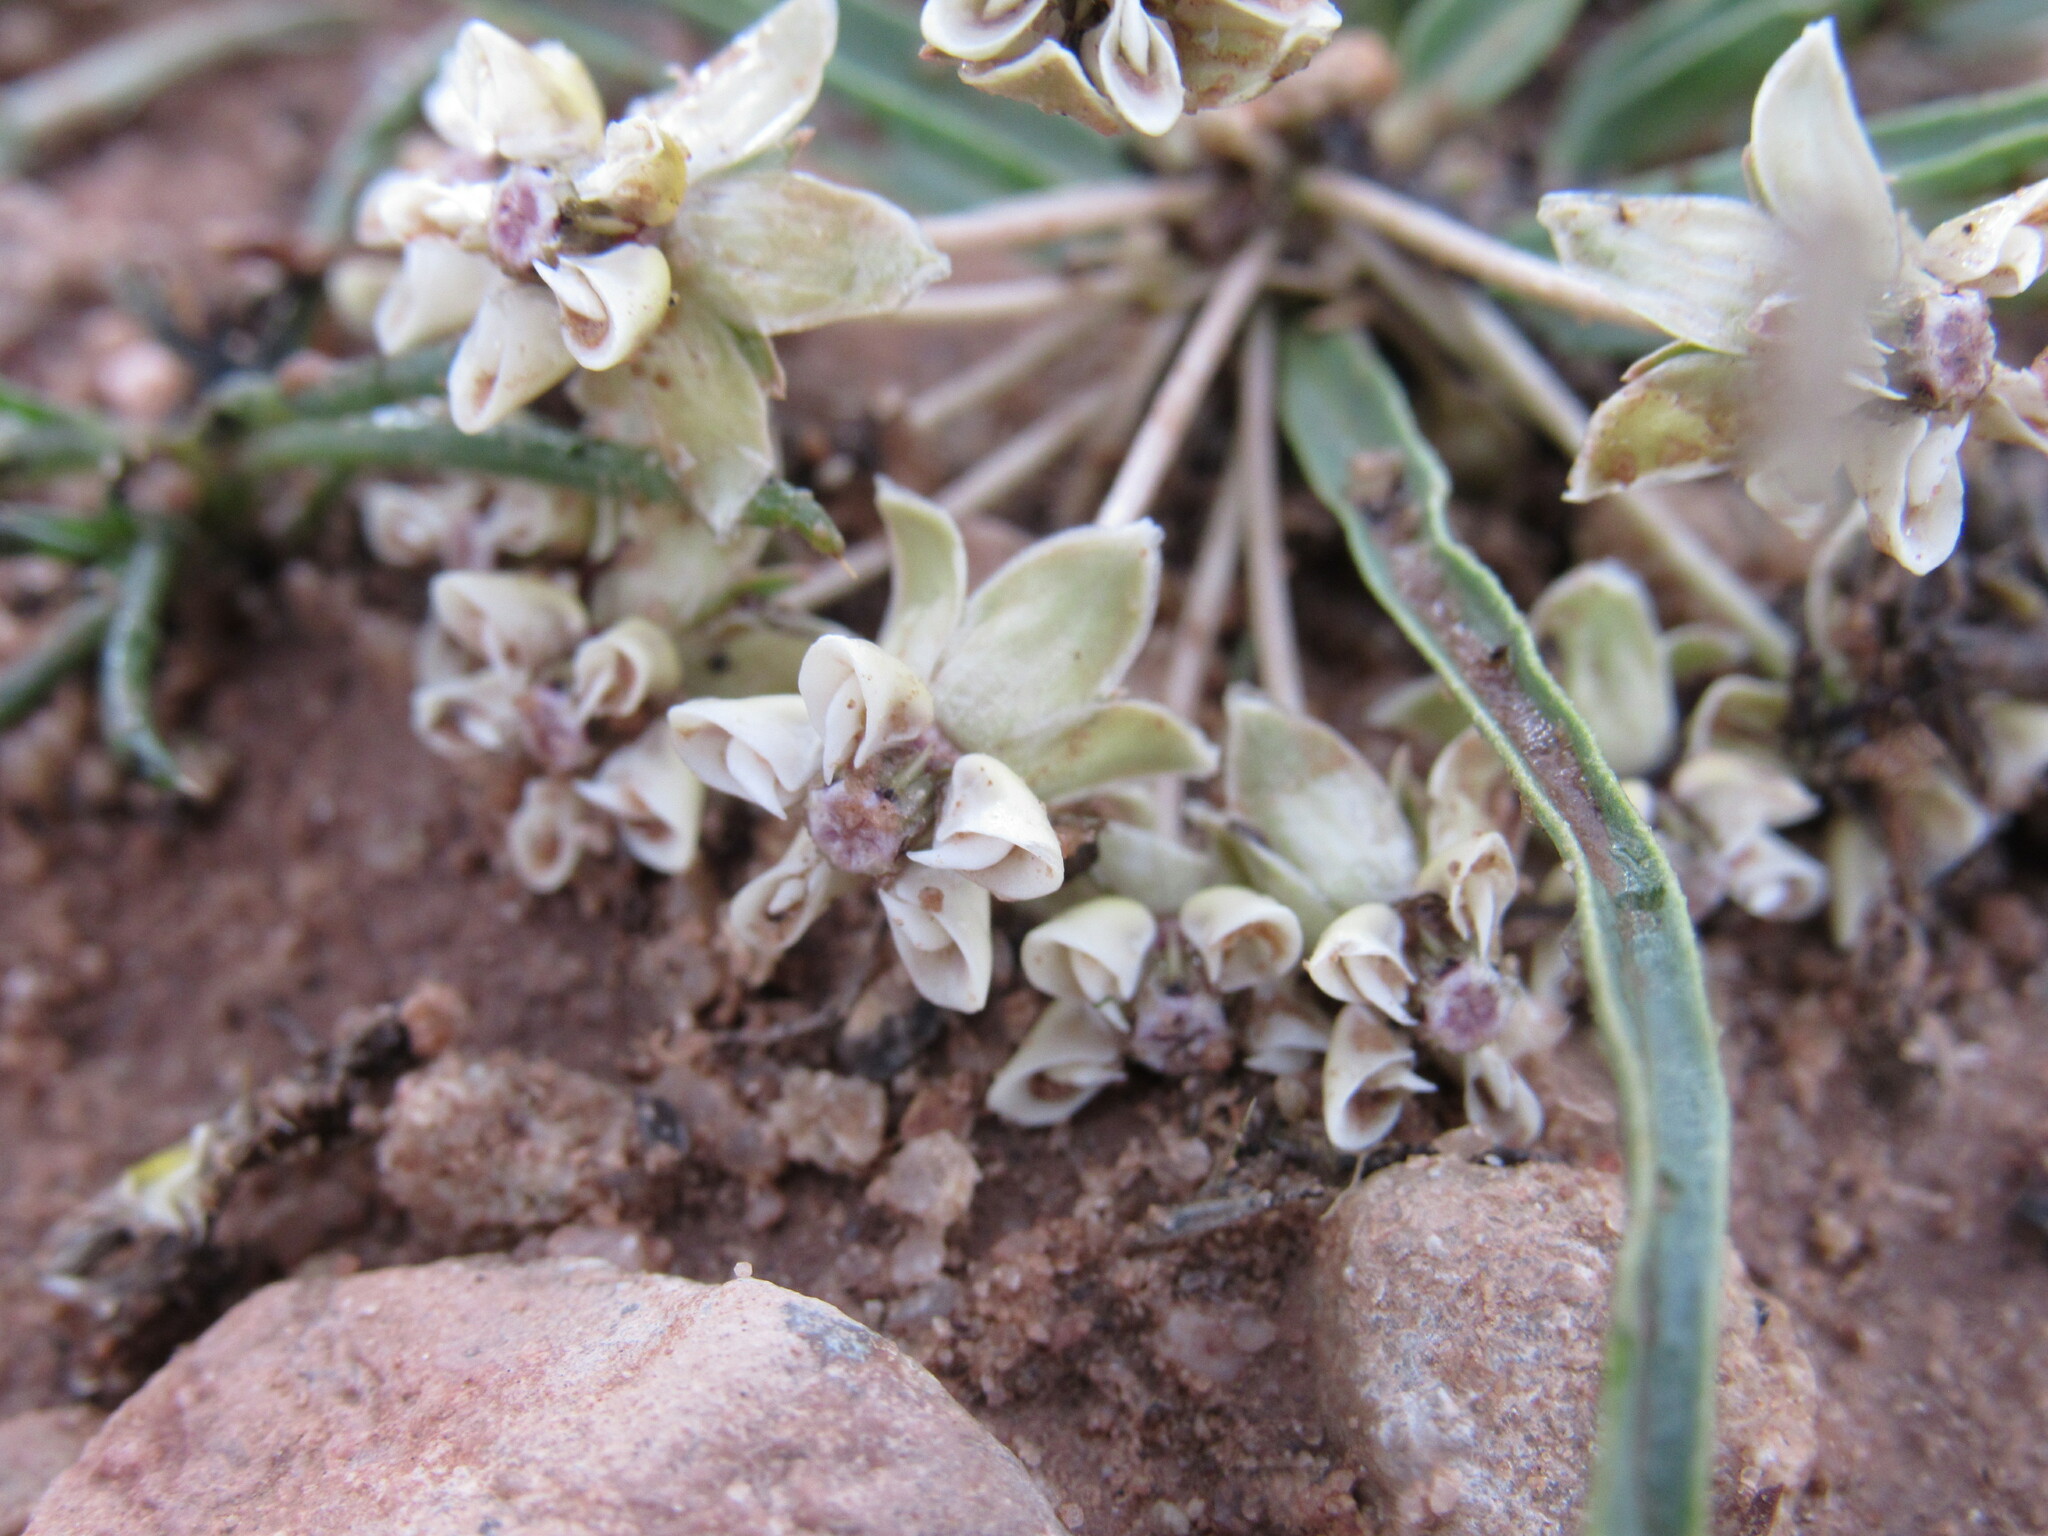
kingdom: Plantae
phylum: Tracheophyta
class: Magnoliopsida
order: Gentianales
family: Apocynaceae
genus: Asclepias
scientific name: Asclepias involucrata
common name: Dwarf milkweed
